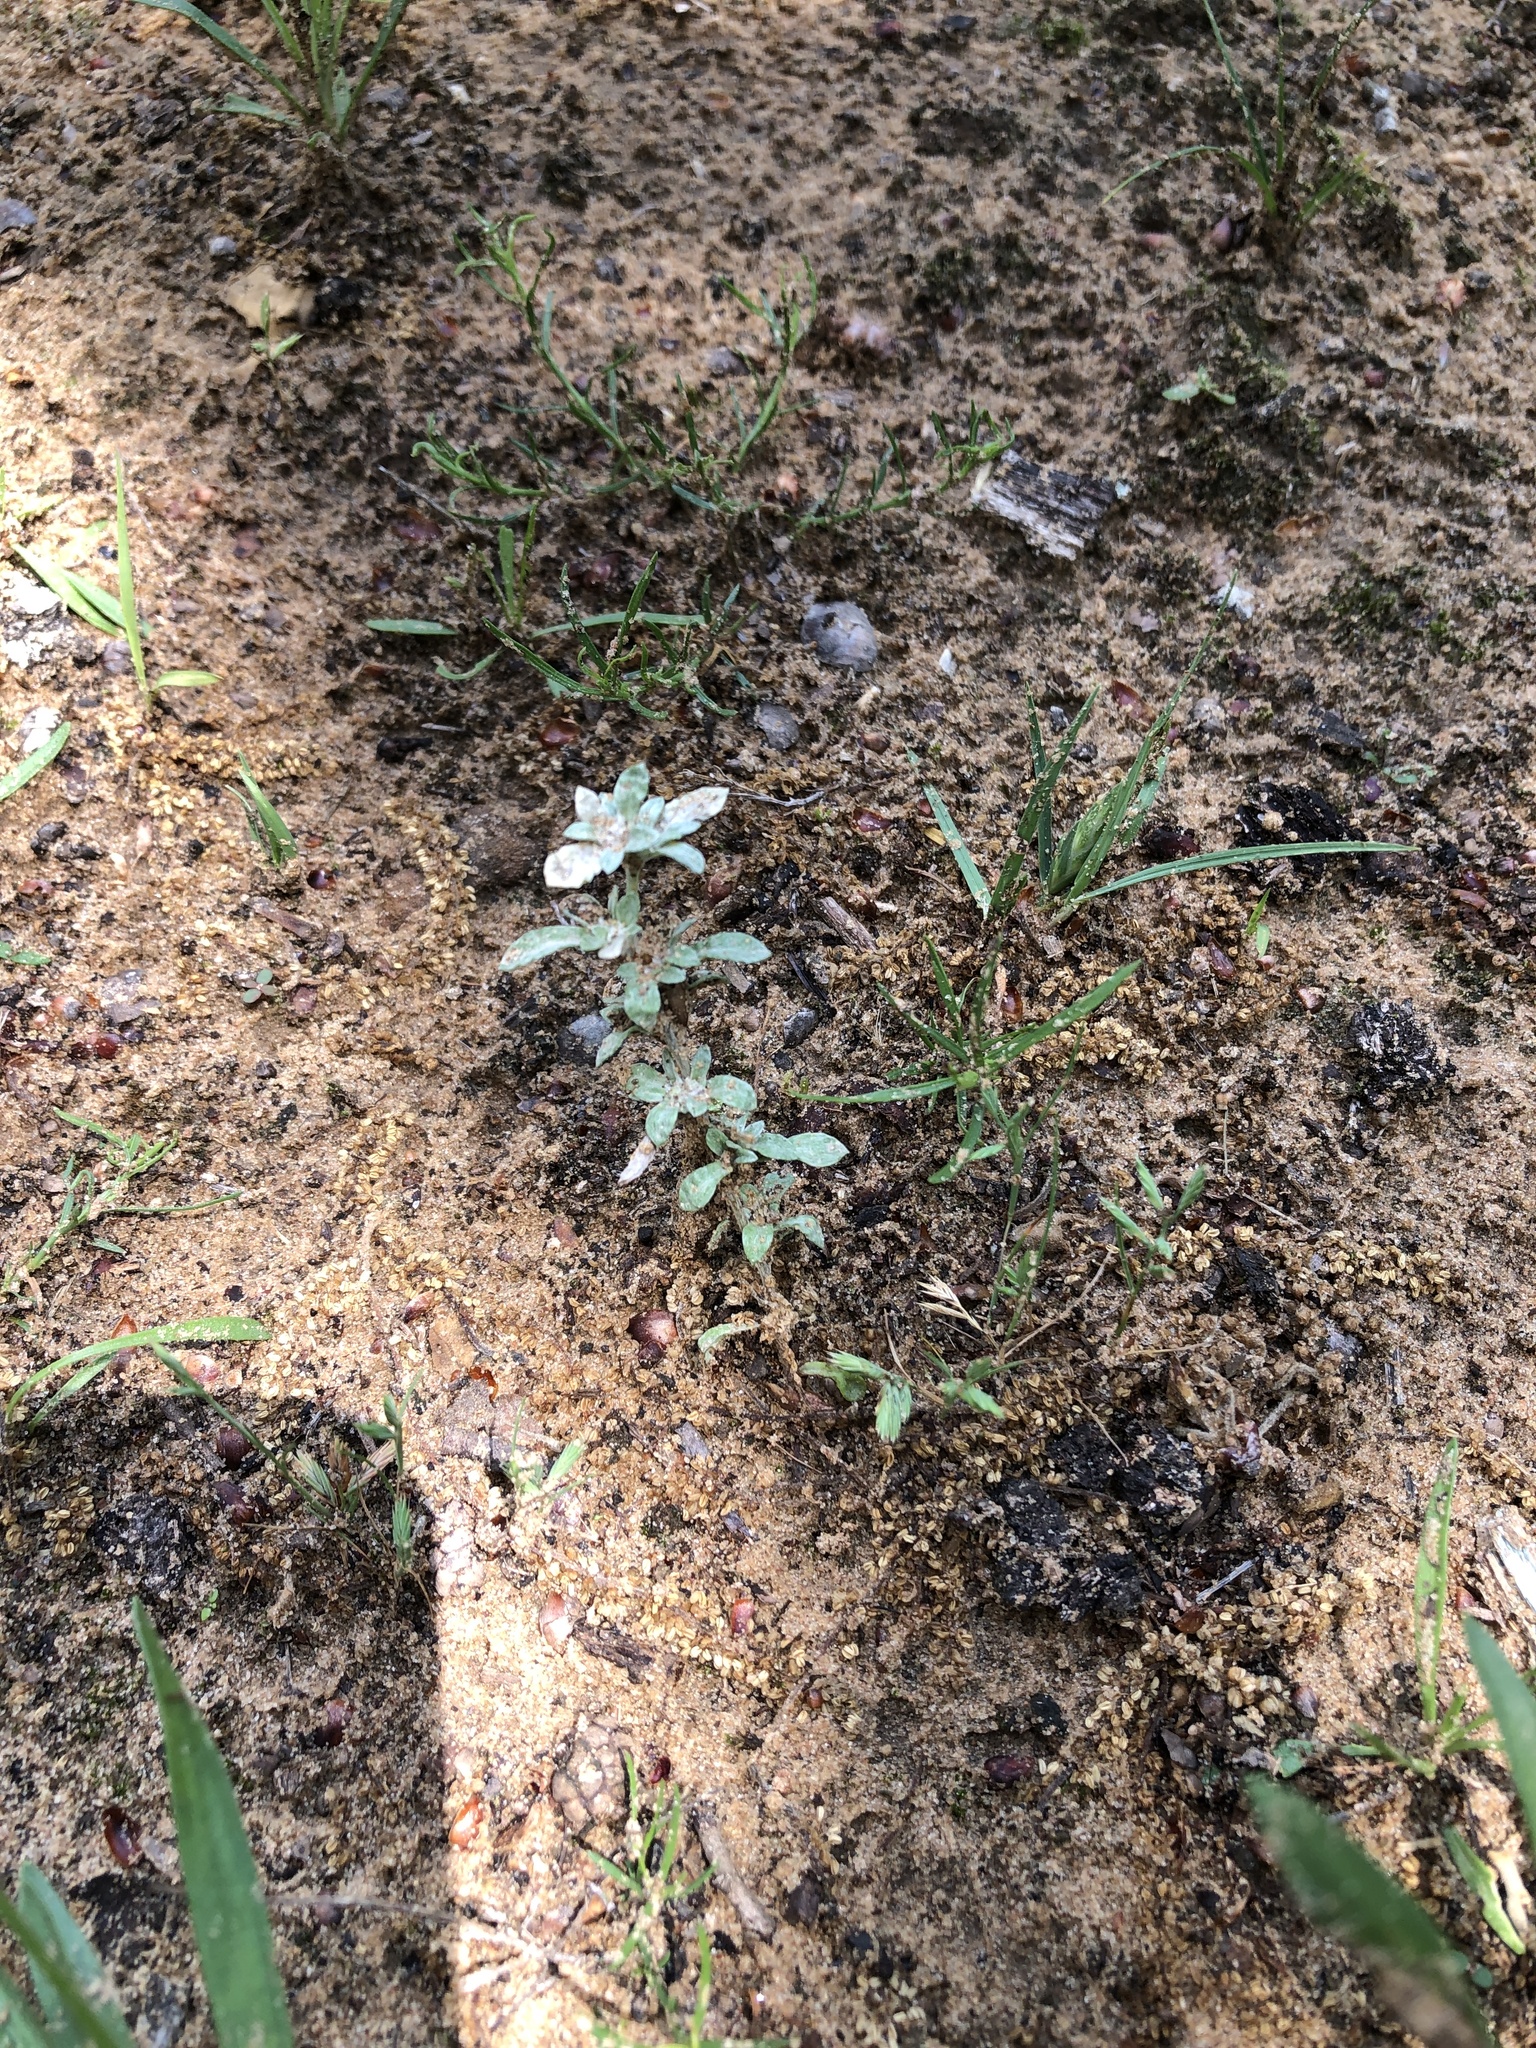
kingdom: Plantae
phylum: Tracheophyta
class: Magnoliopsida
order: Asterales
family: Asteraceae
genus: Diaperia
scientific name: Diaperia verna
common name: Many-stem rabbit-tobacco
